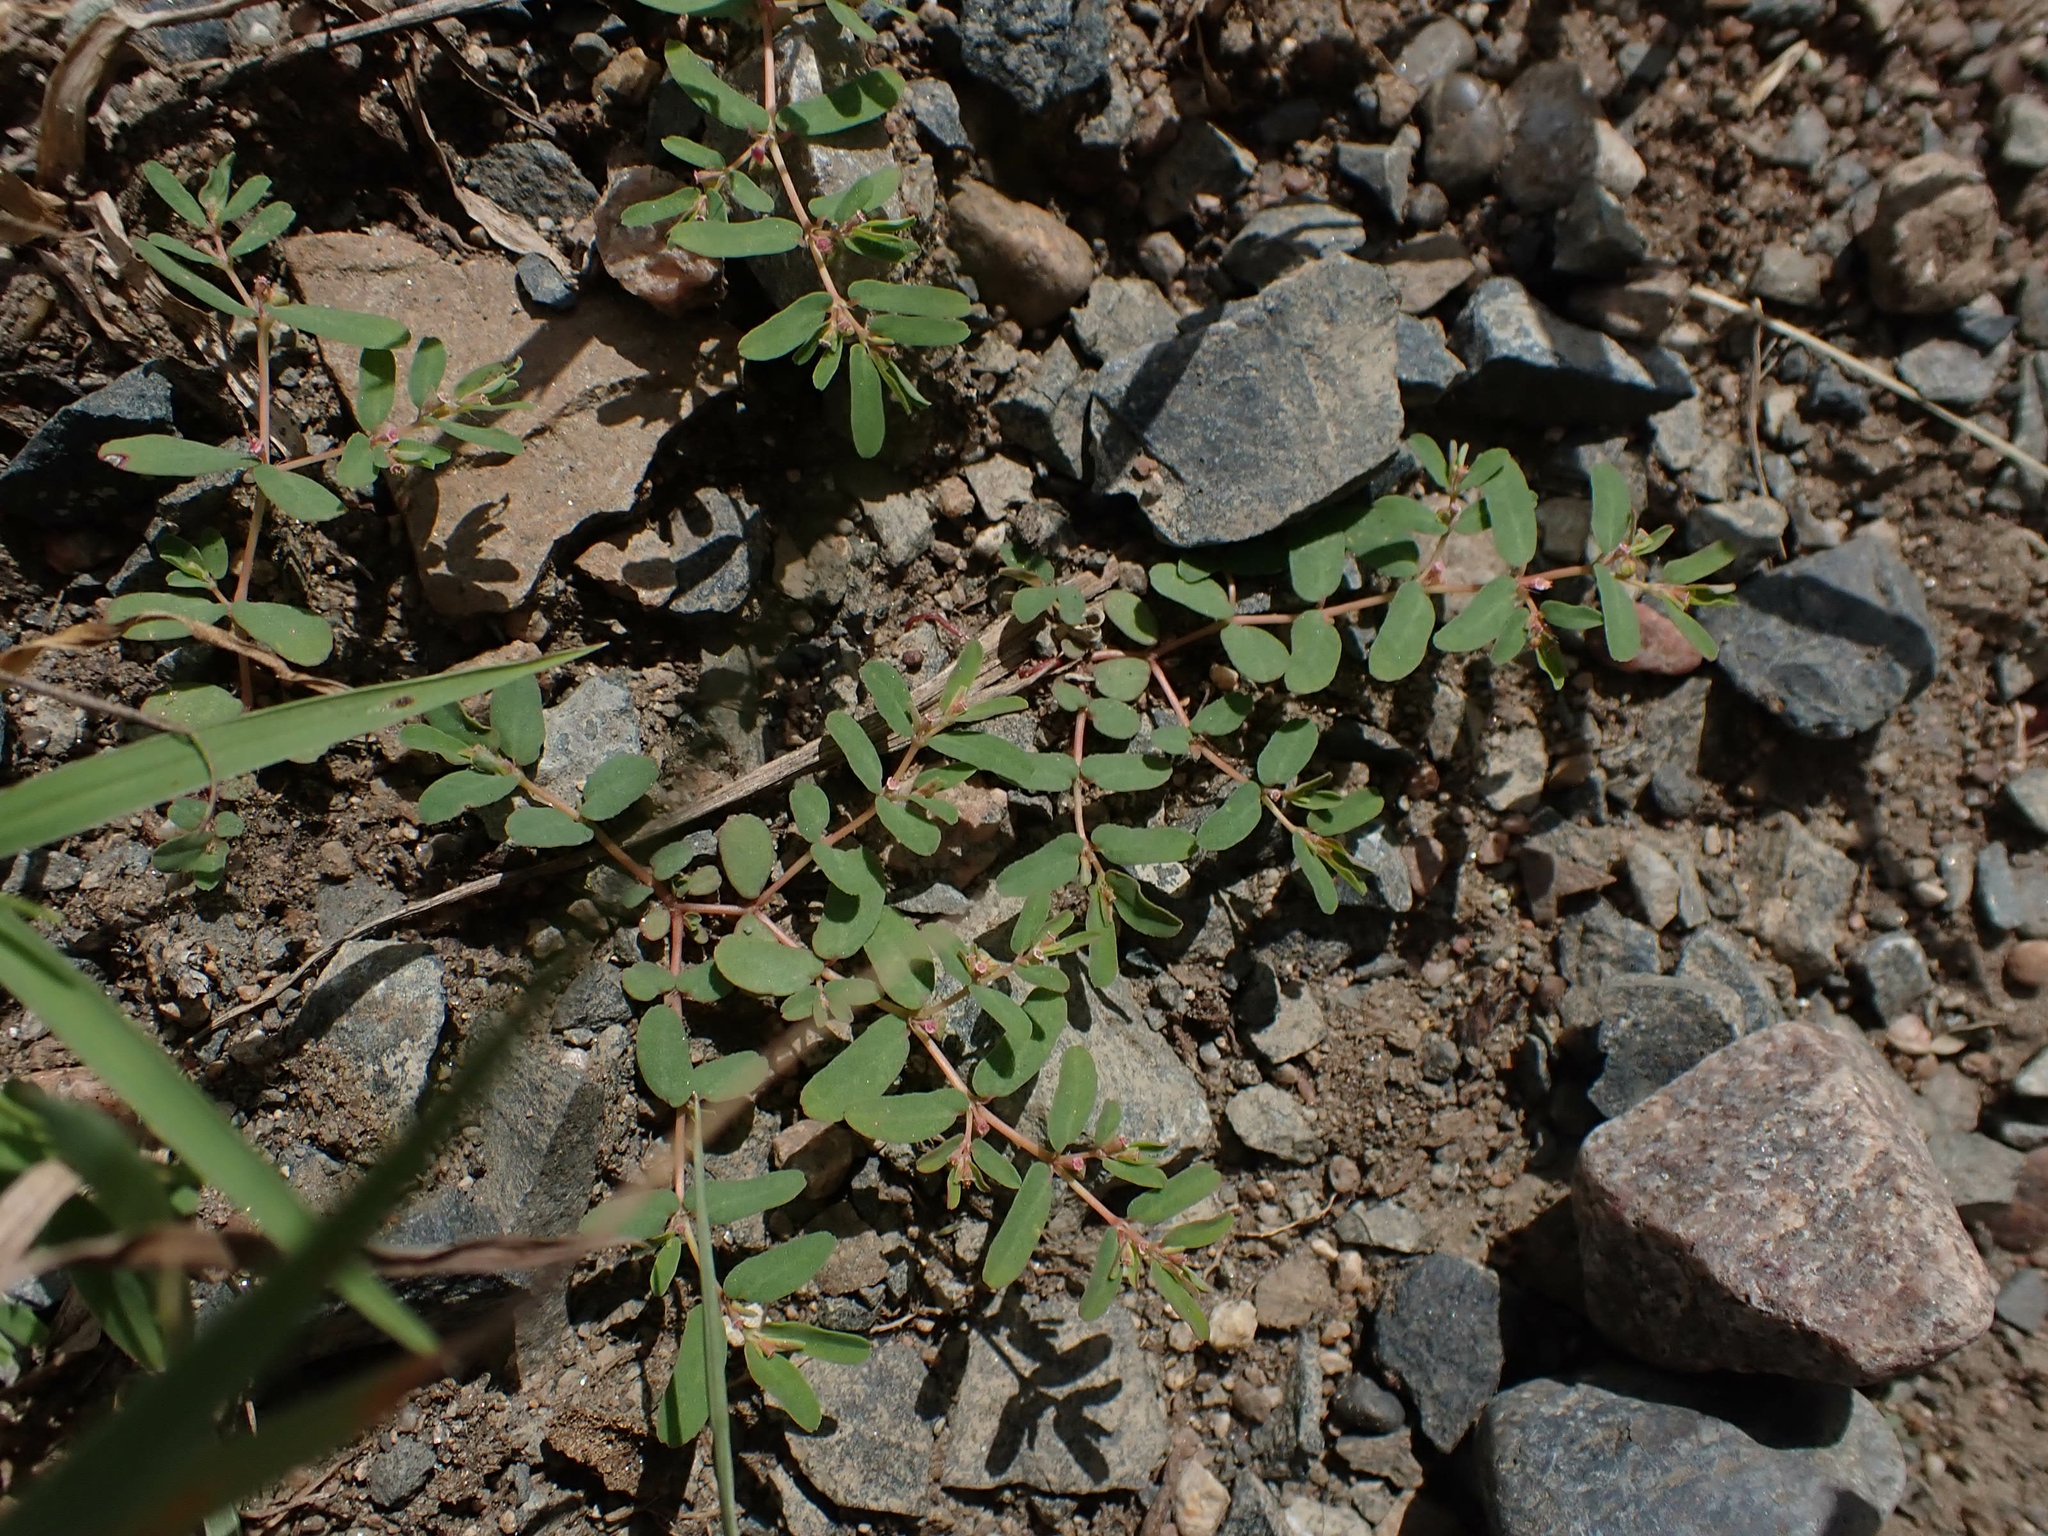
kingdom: Plantae
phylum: Tracheophyta
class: Magnoliopsida
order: Malpighiales
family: Euphorbiaceae
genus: Euphorbia
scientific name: Euphorbia glyptosperma
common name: Corrugate-seeded spurge
